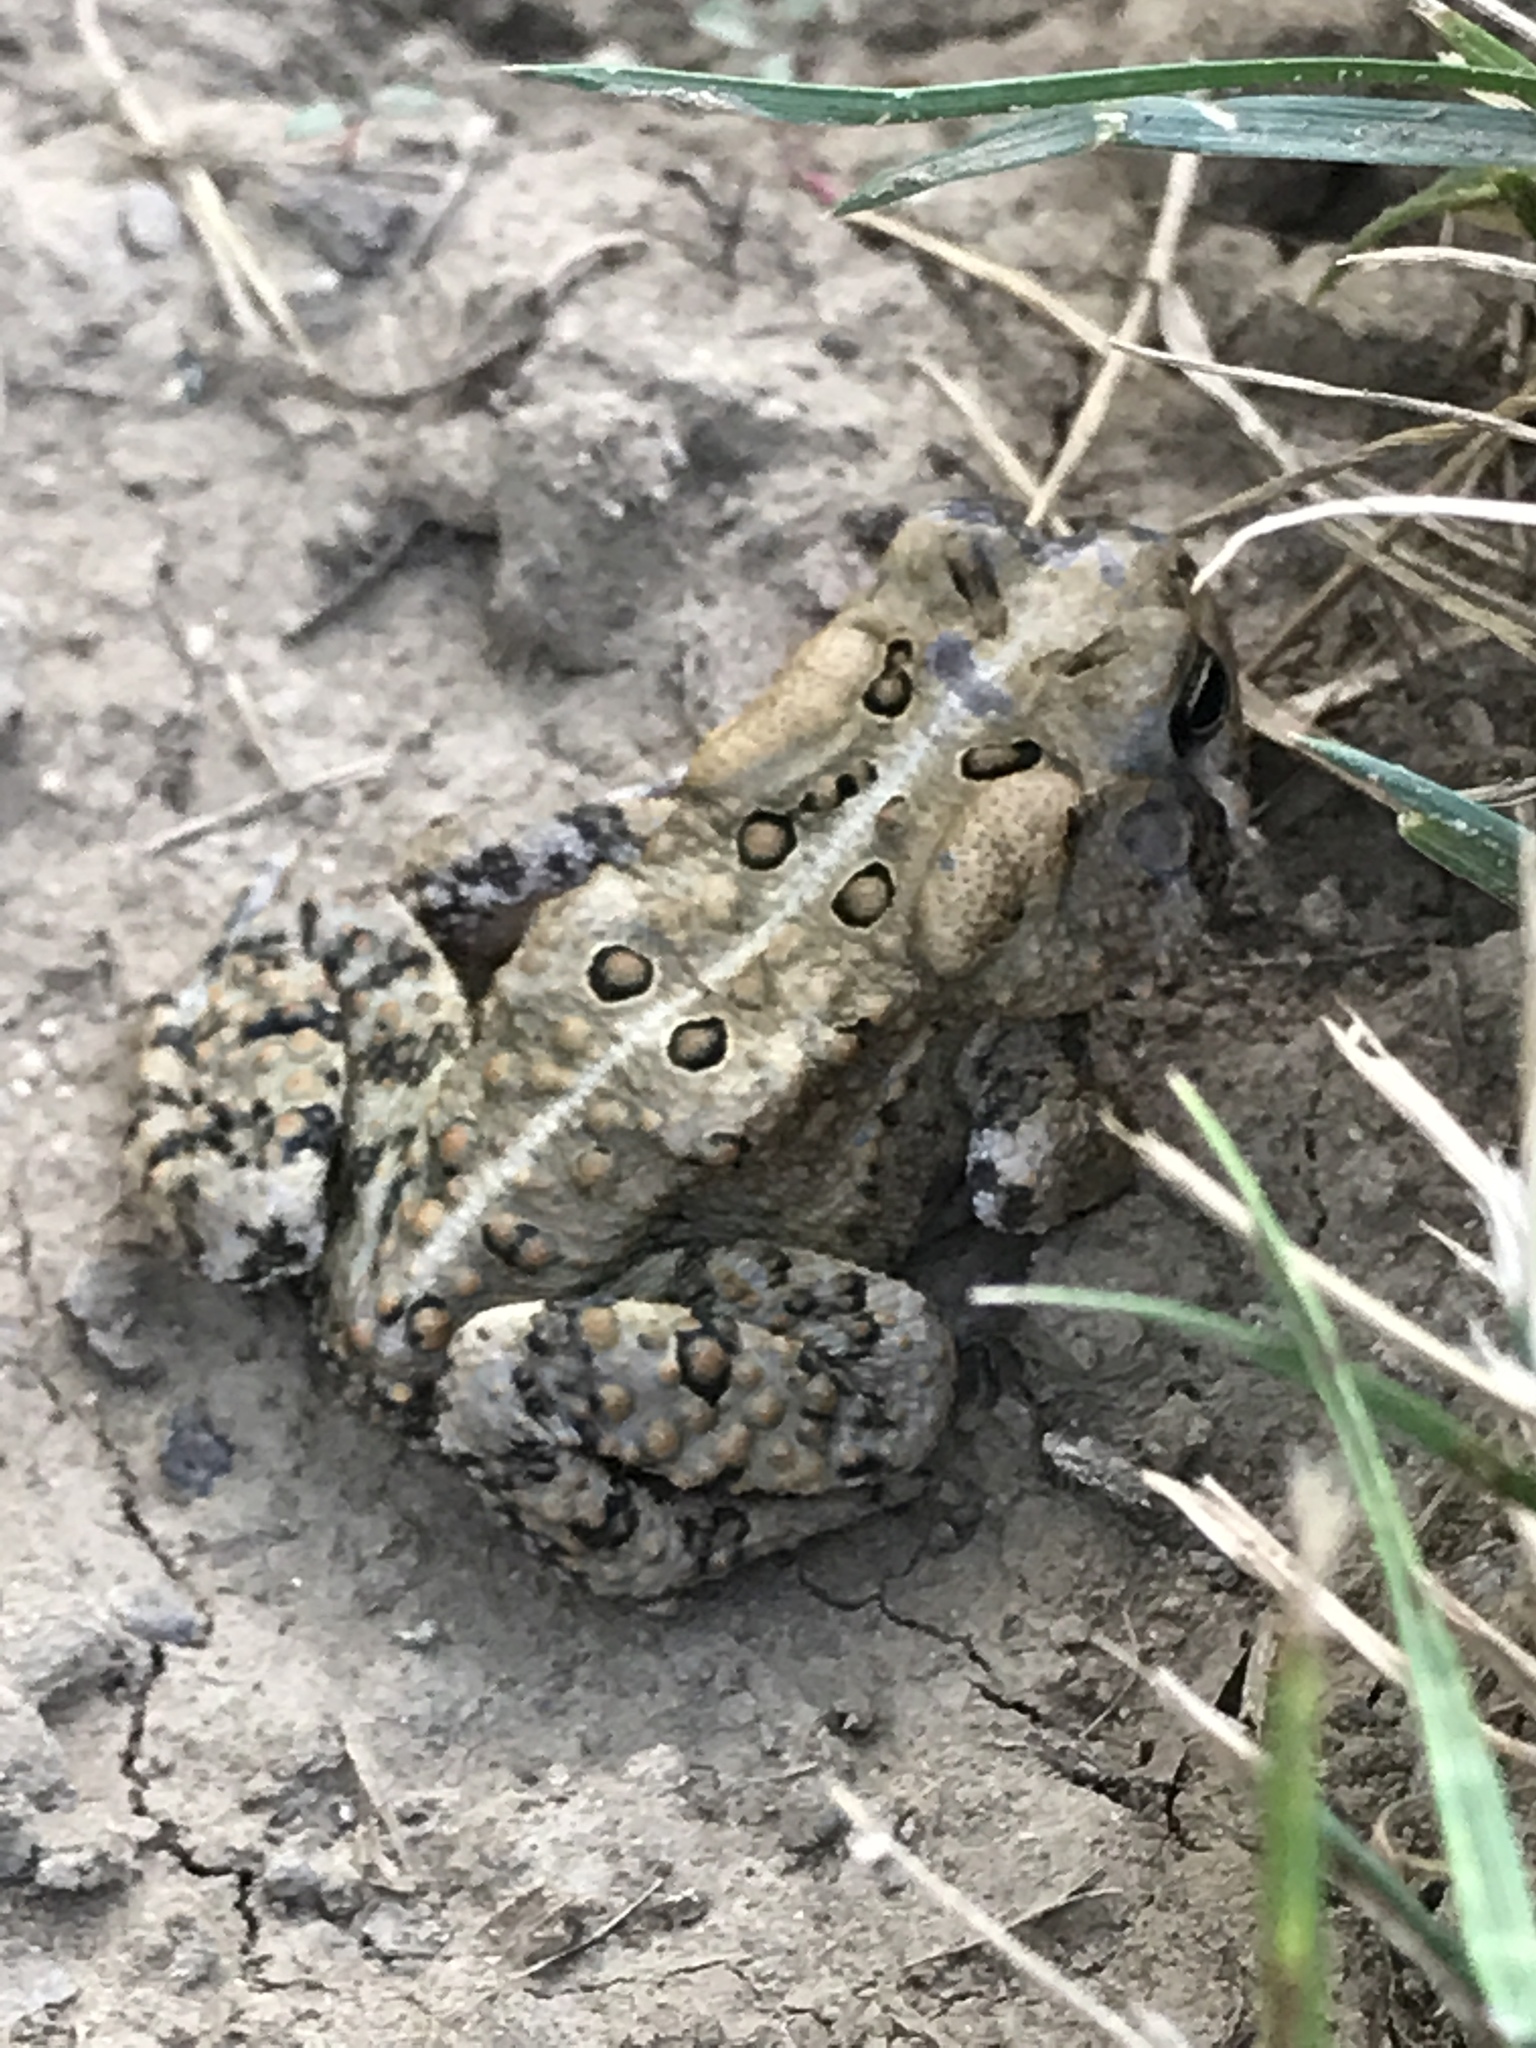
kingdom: Animalia
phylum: Chordata
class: Amphibia
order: Anura
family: Bufonidae
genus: Anaxyrus
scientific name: Anaxyrus americanus
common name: American toad
